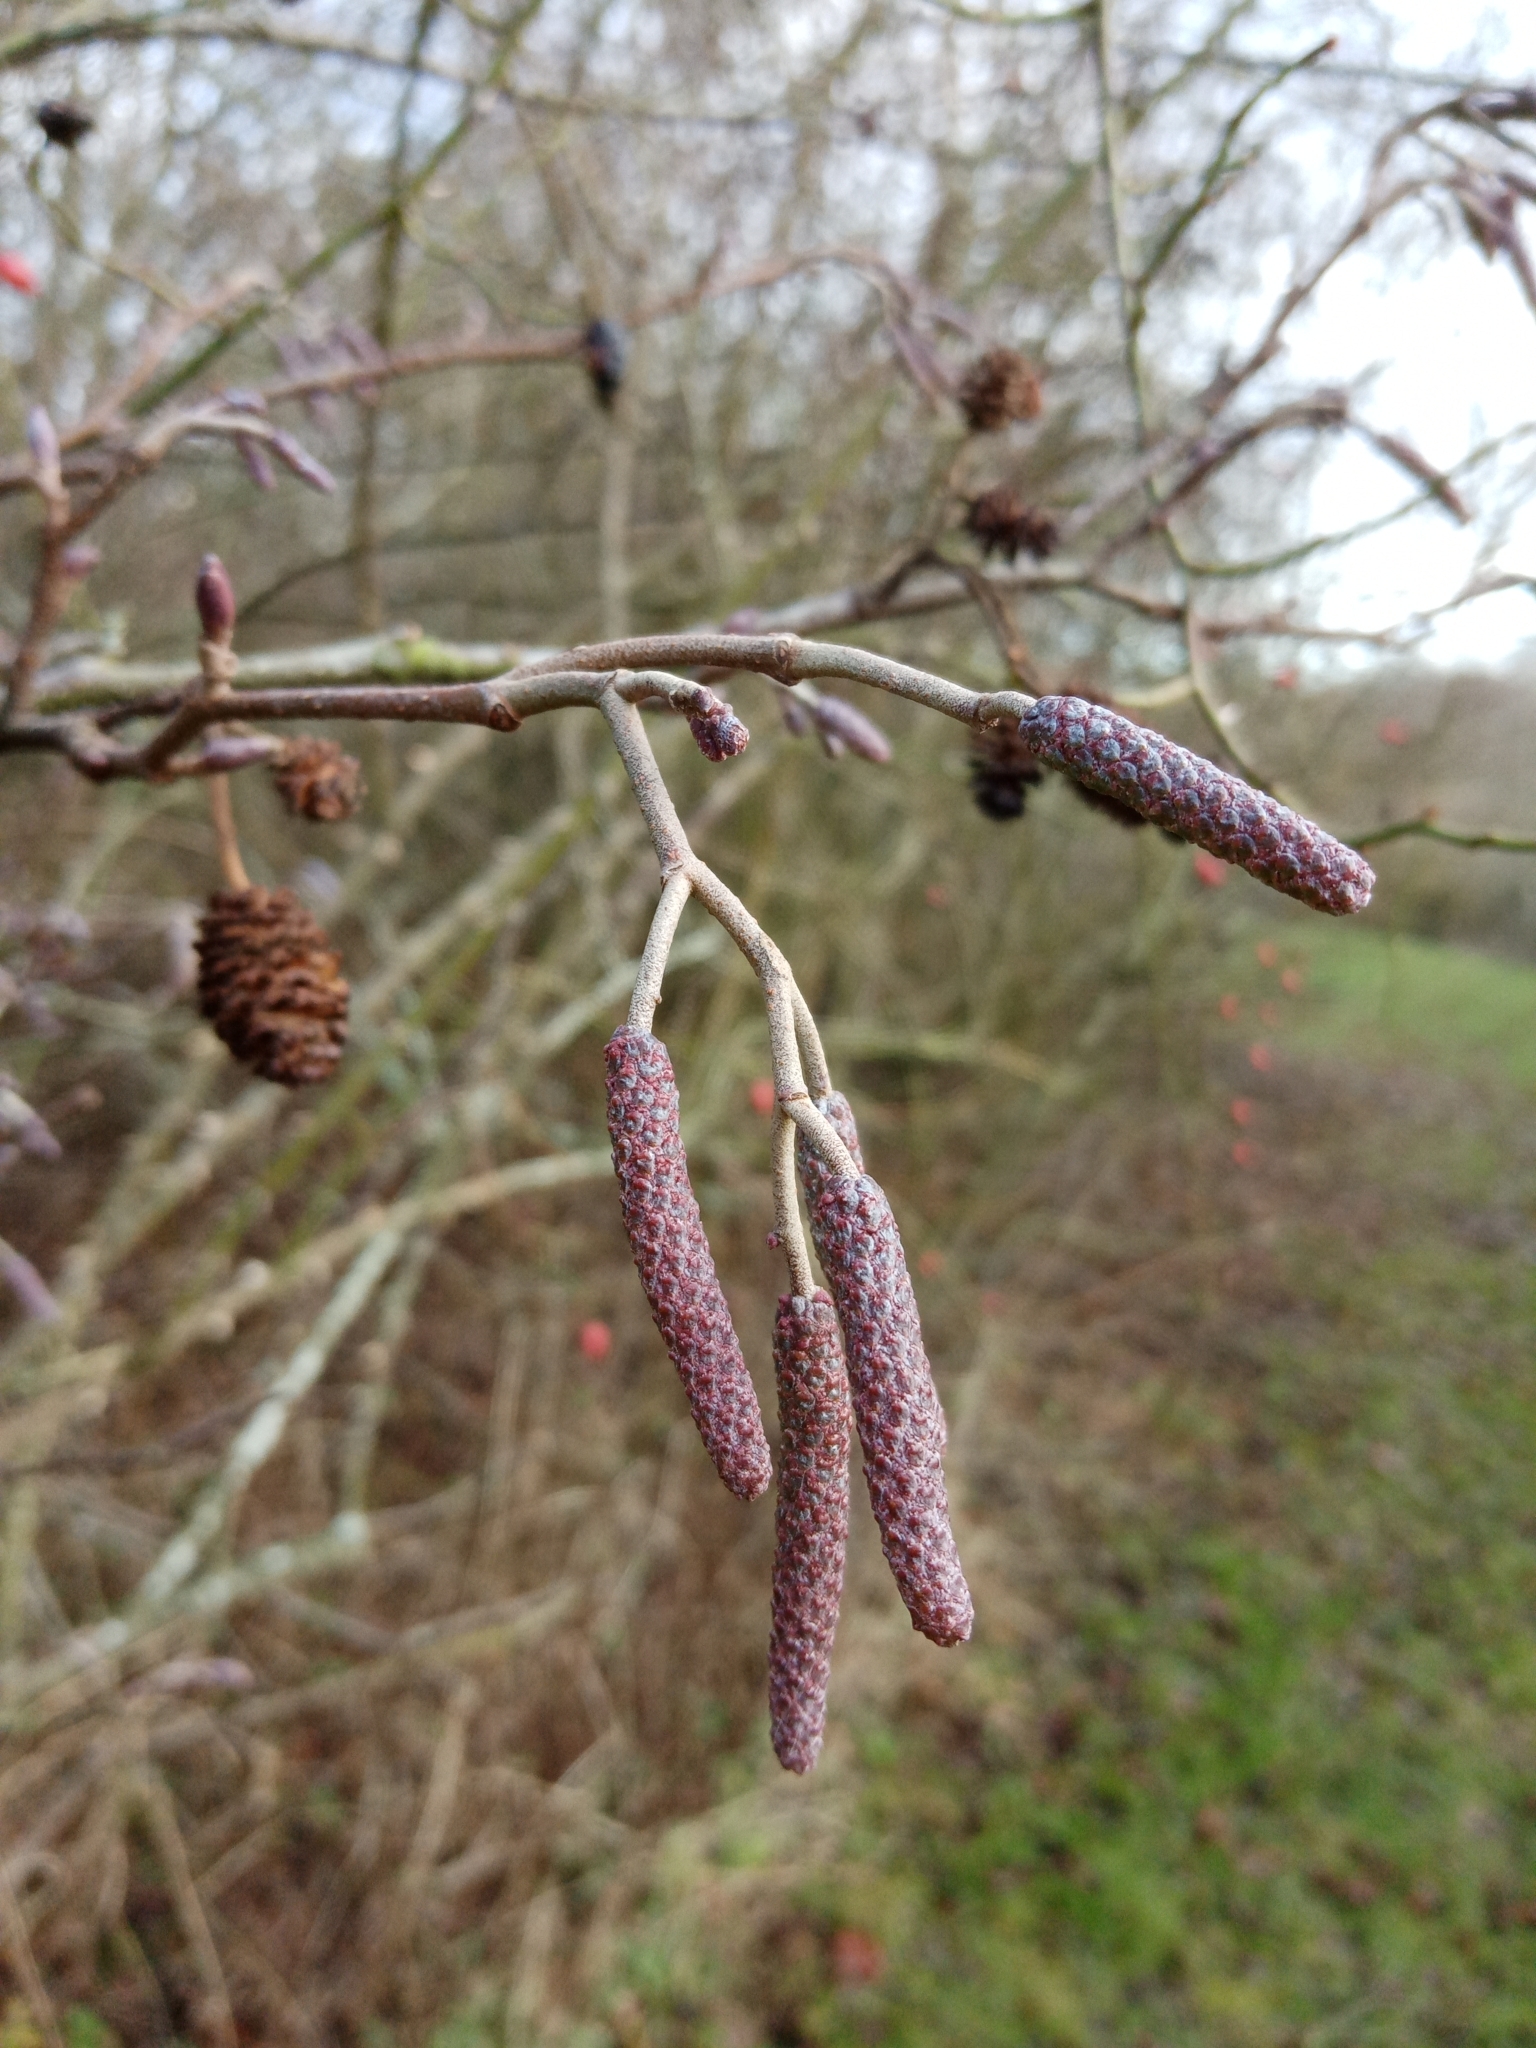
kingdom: Plantae
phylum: Tracheophyta
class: Magnoliopsida
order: Fagales
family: Betulaceae
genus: Alnus
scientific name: Alnus glutinosa
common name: Black alder
